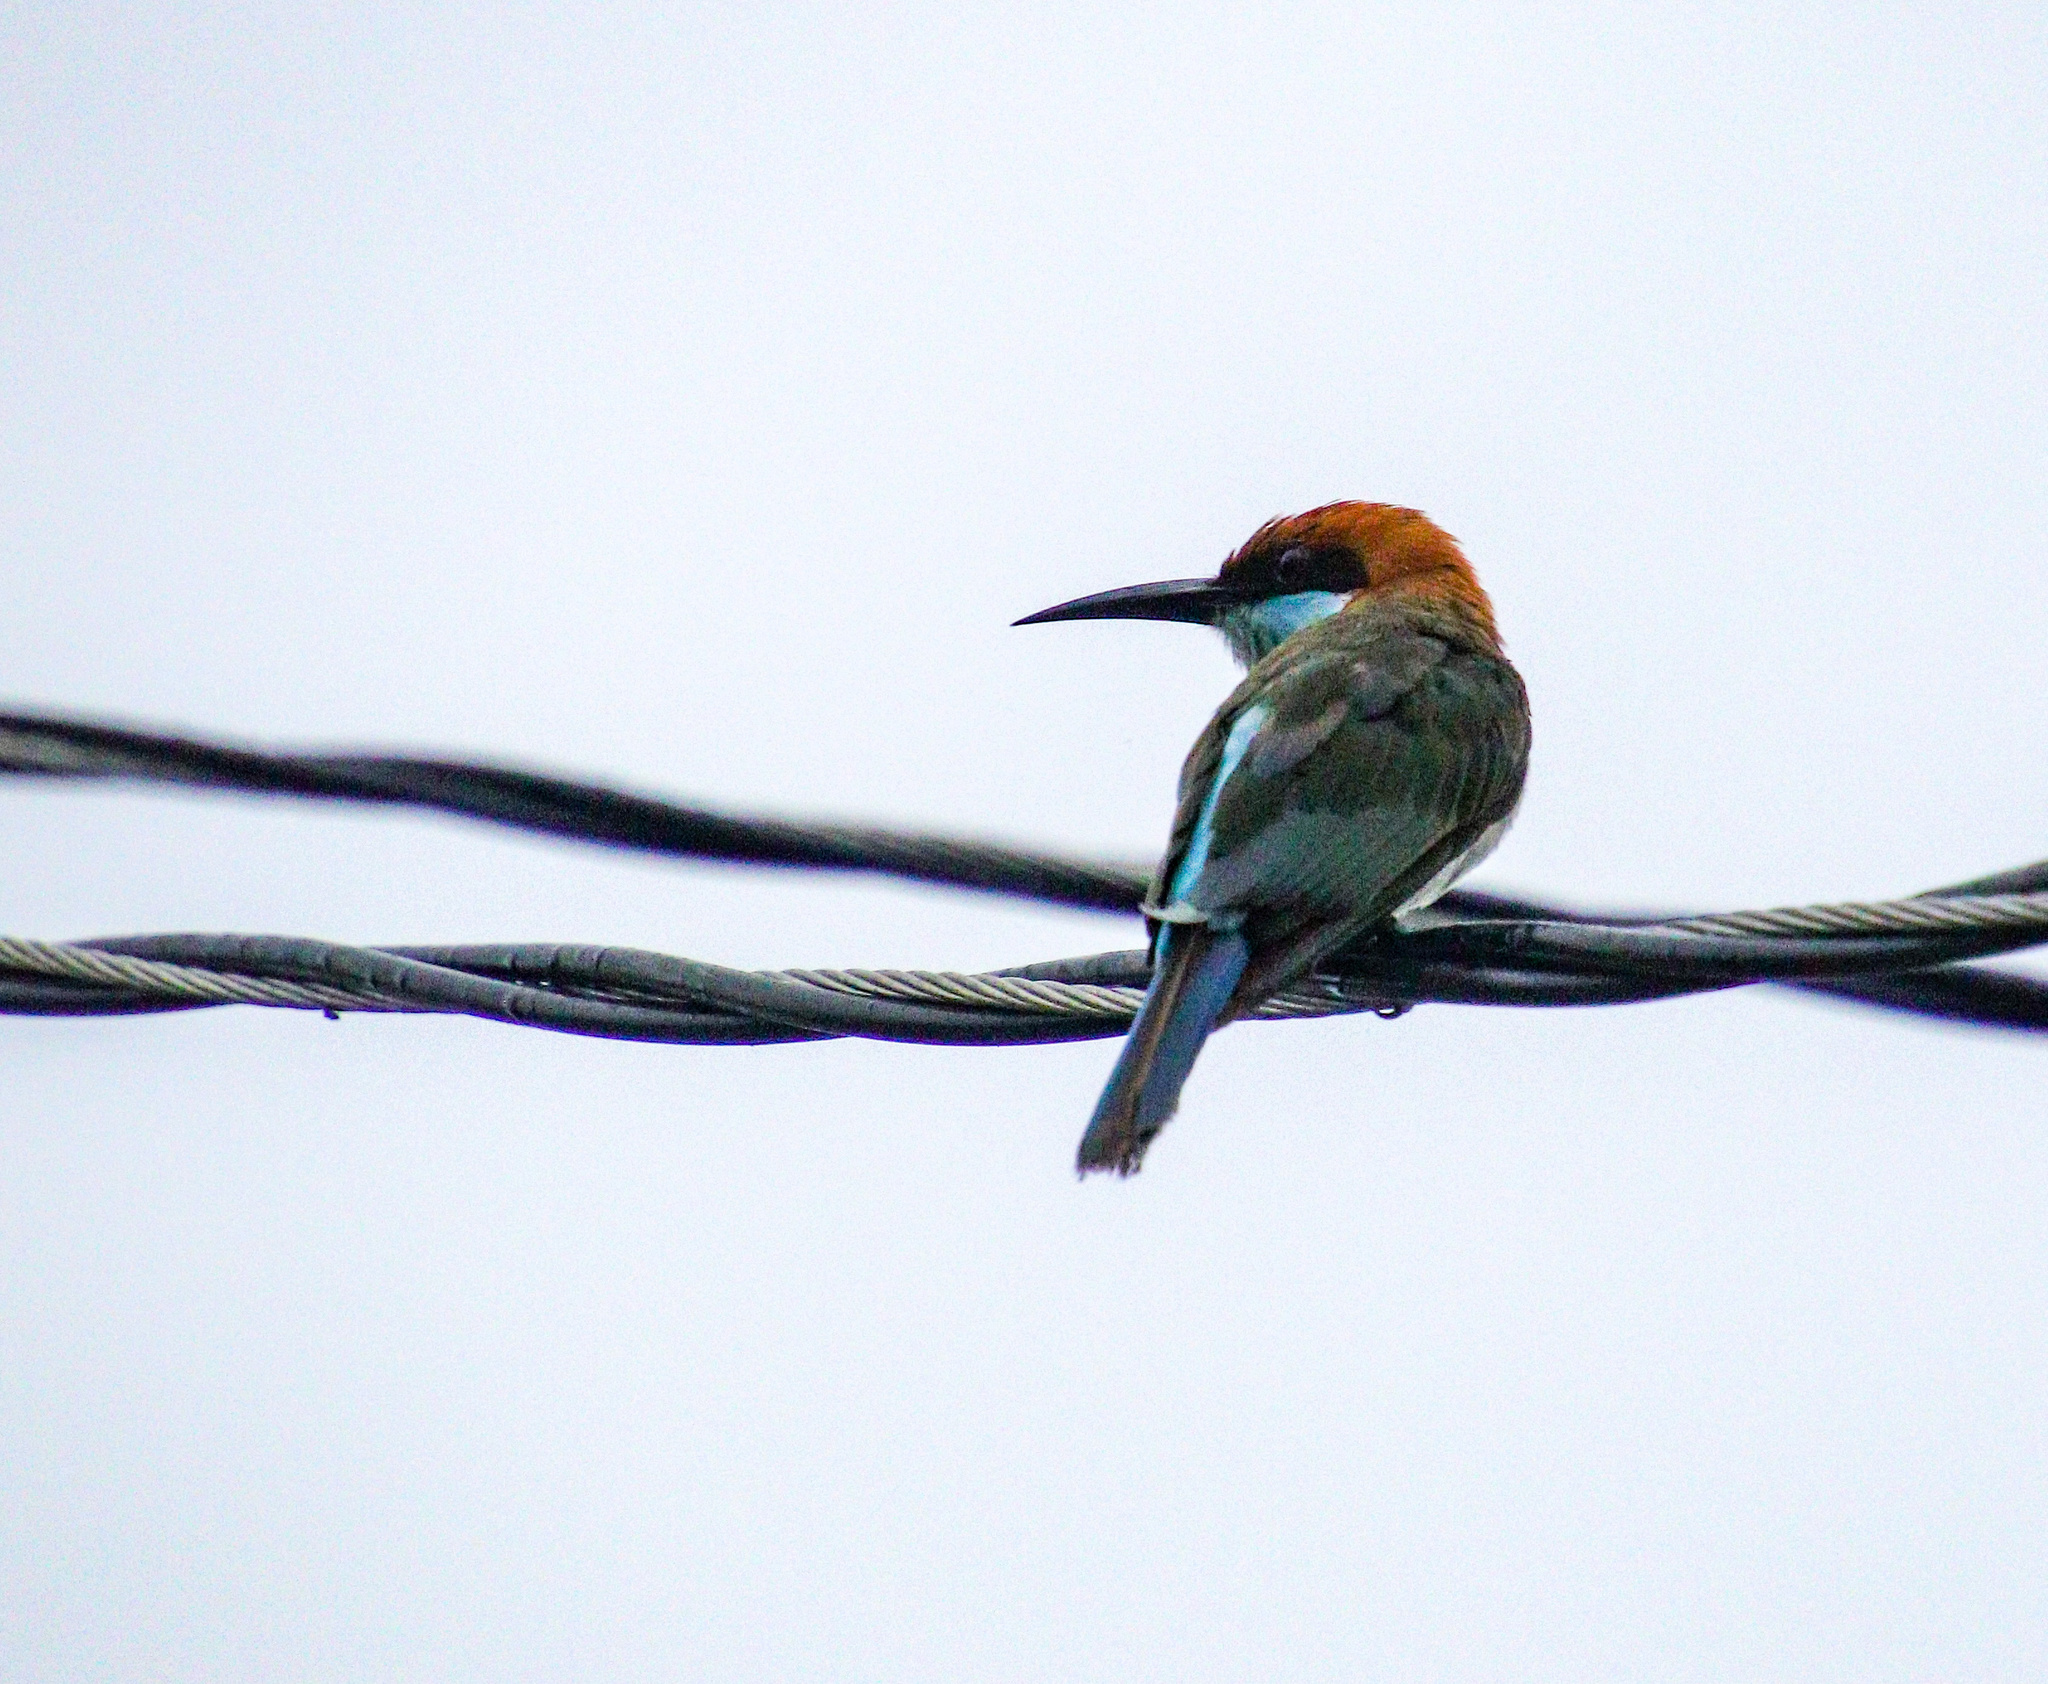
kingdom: Animalia
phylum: Chordata
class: Aves
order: Coraciiformes
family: Meropidae
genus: Merops
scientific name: Merops americanus
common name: Rufous-crowned bee-eater
